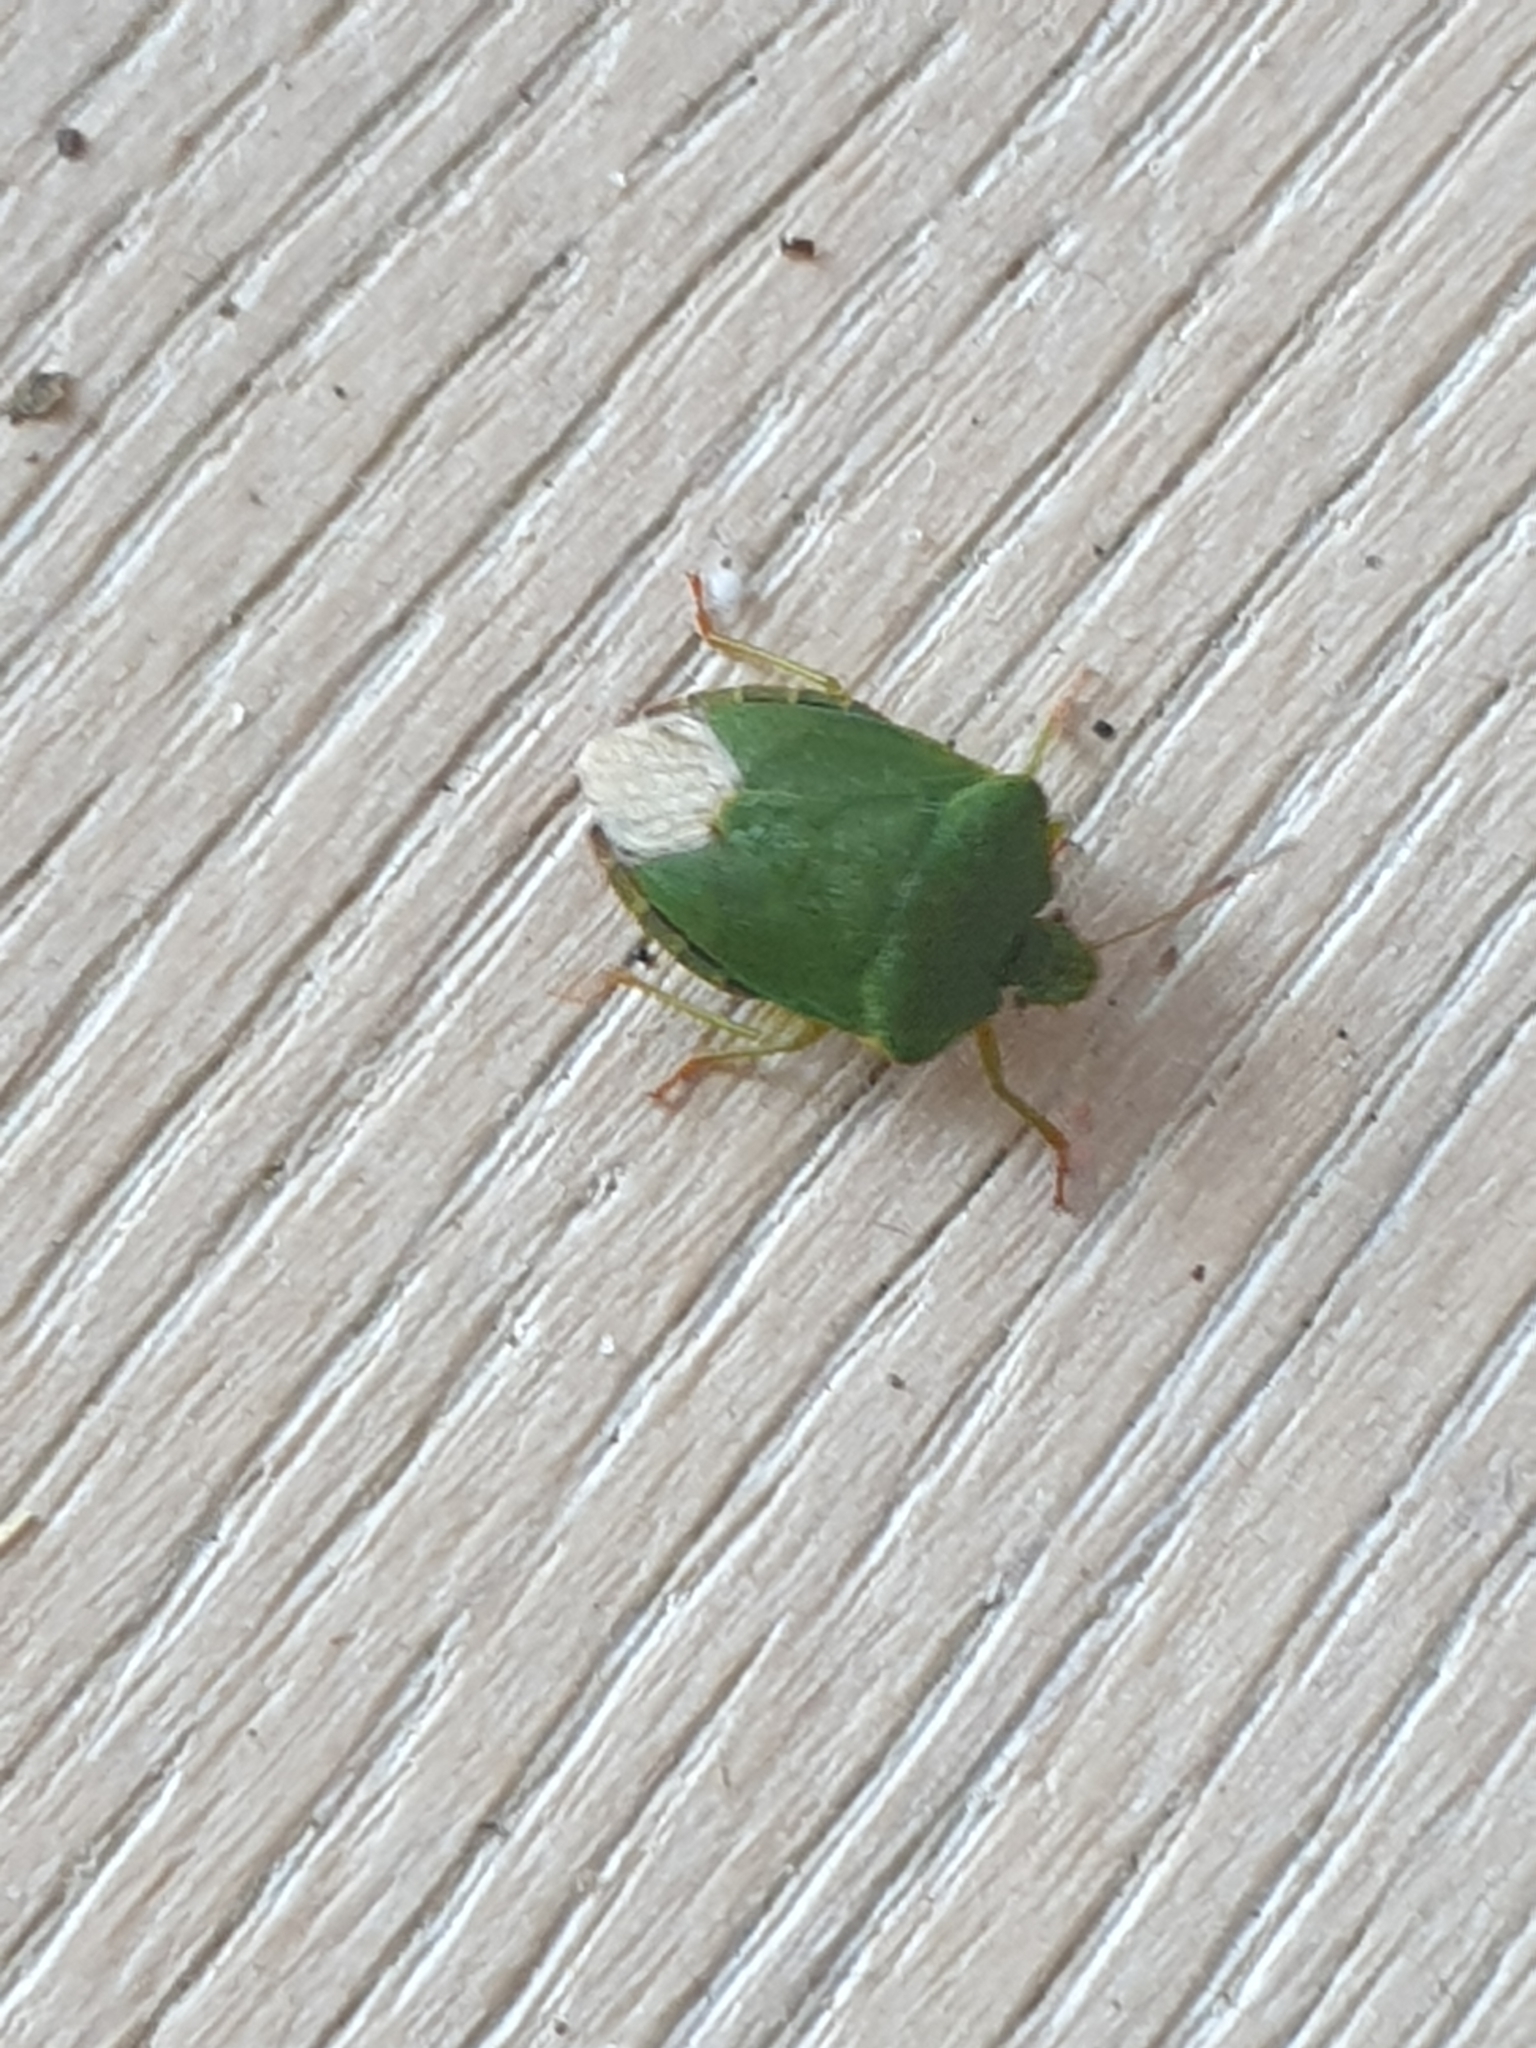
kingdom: Animalia
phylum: Arthropoda
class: Insecta
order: Hemiptera
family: Pentatomidae
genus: Palomena
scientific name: Palomena prasina
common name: Green shieldbug
